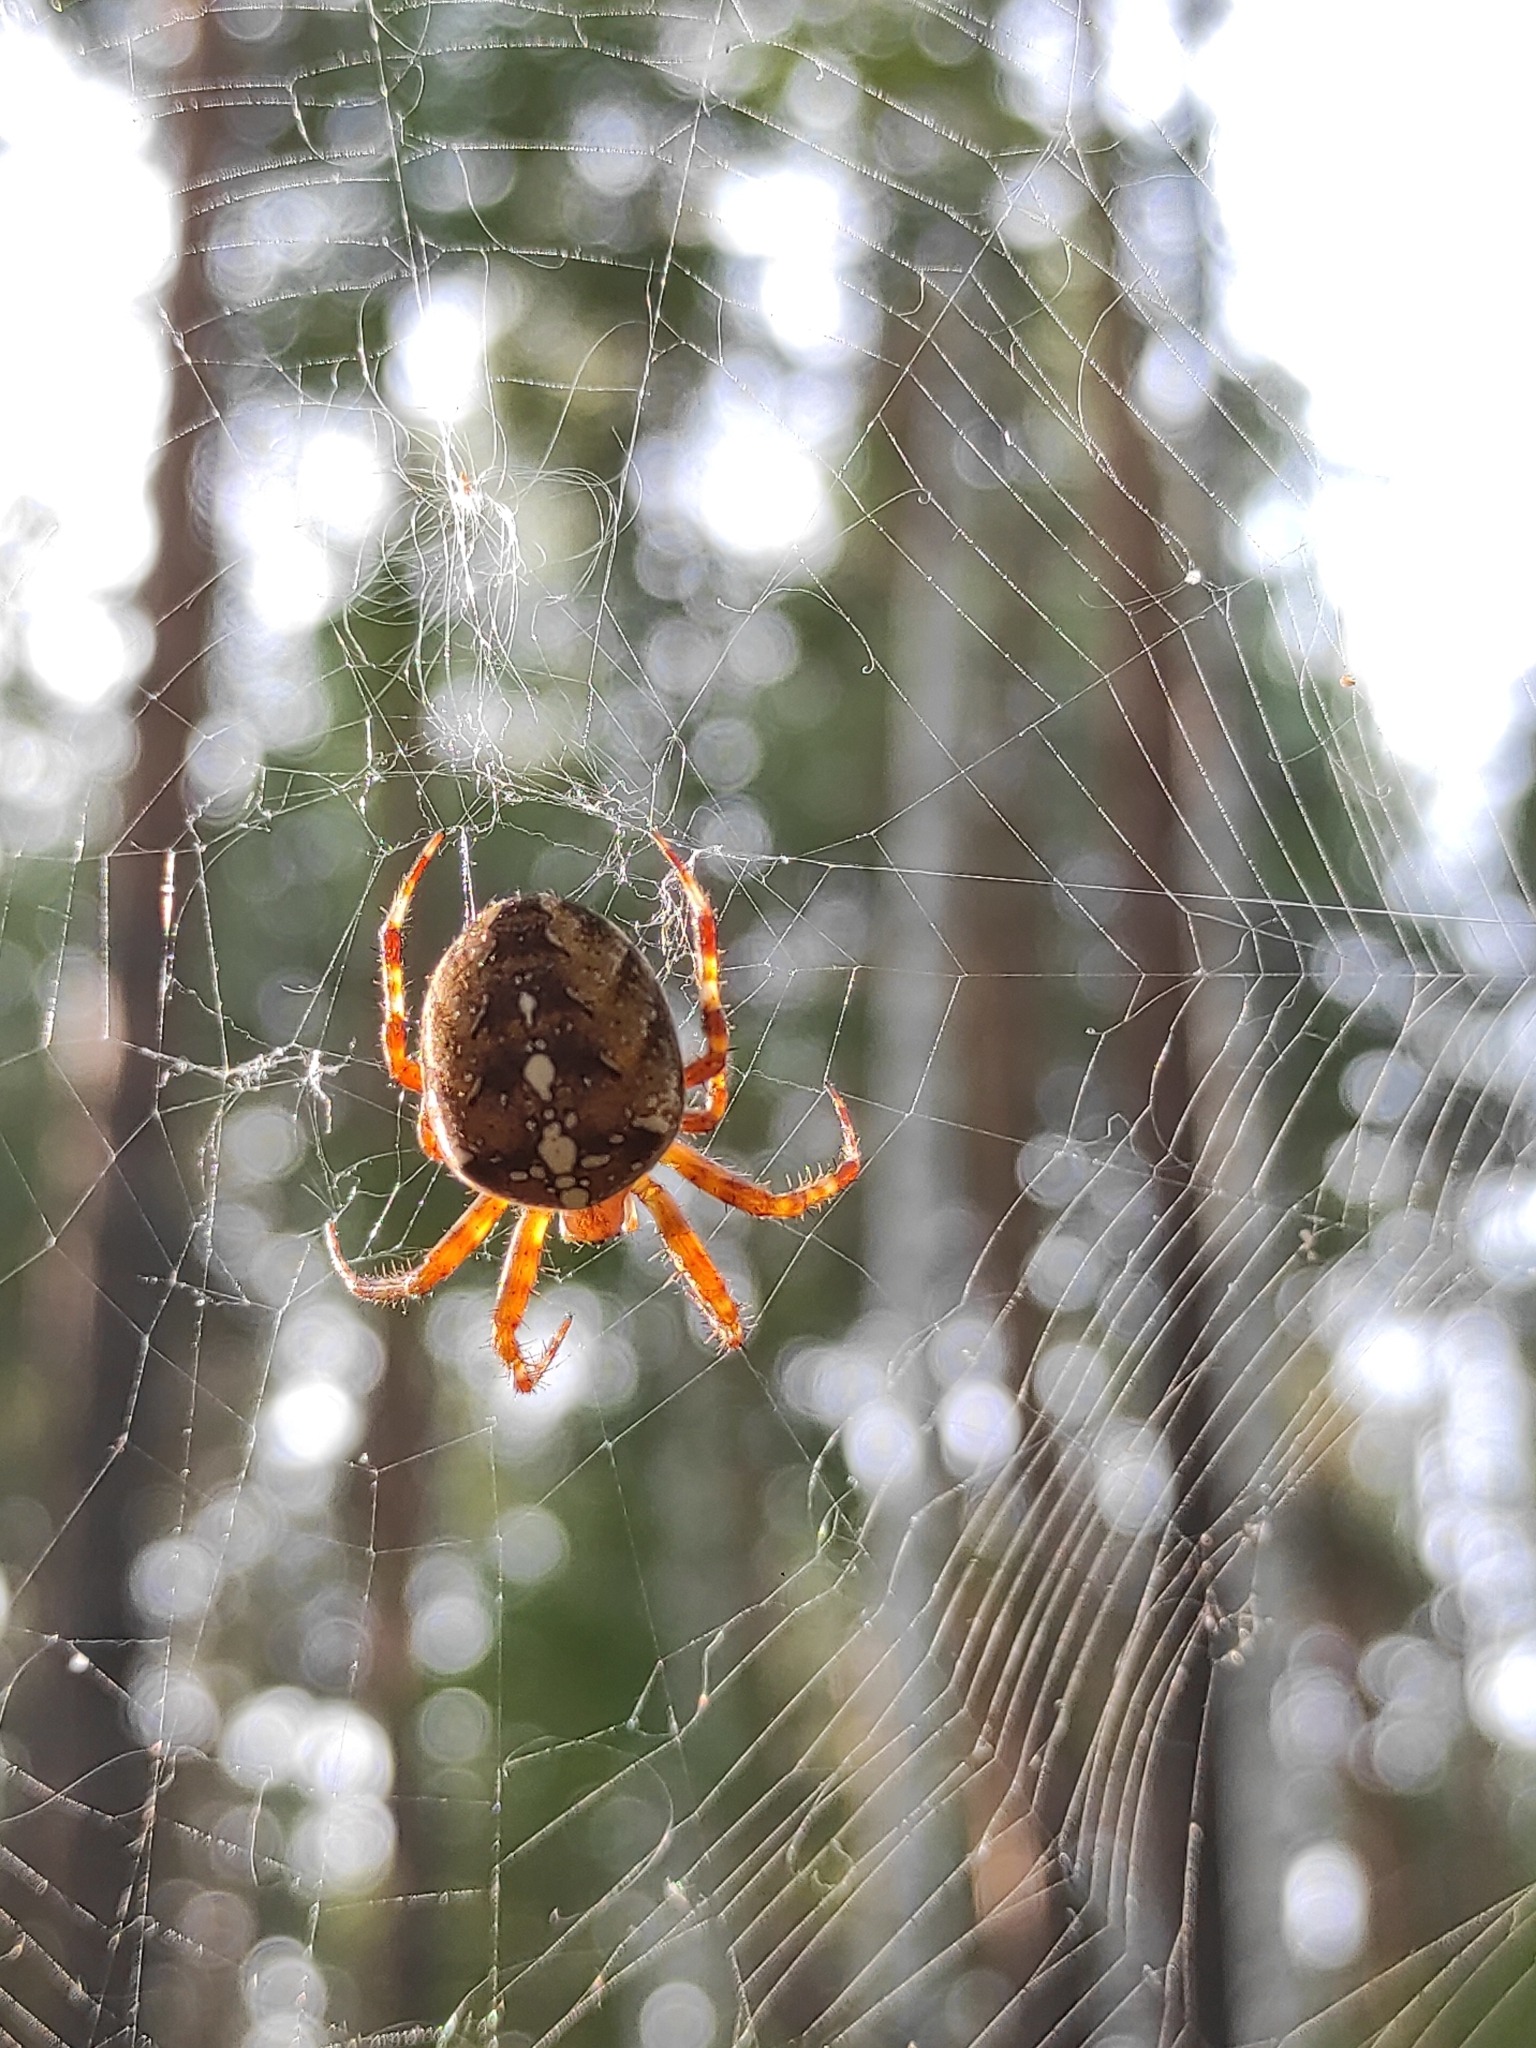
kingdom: Animalia
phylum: Arthropoda
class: Arachnida
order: Araneae
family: Araneidae
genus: Araneus
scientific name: Araneus diadematus
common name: Cross orbweaver
